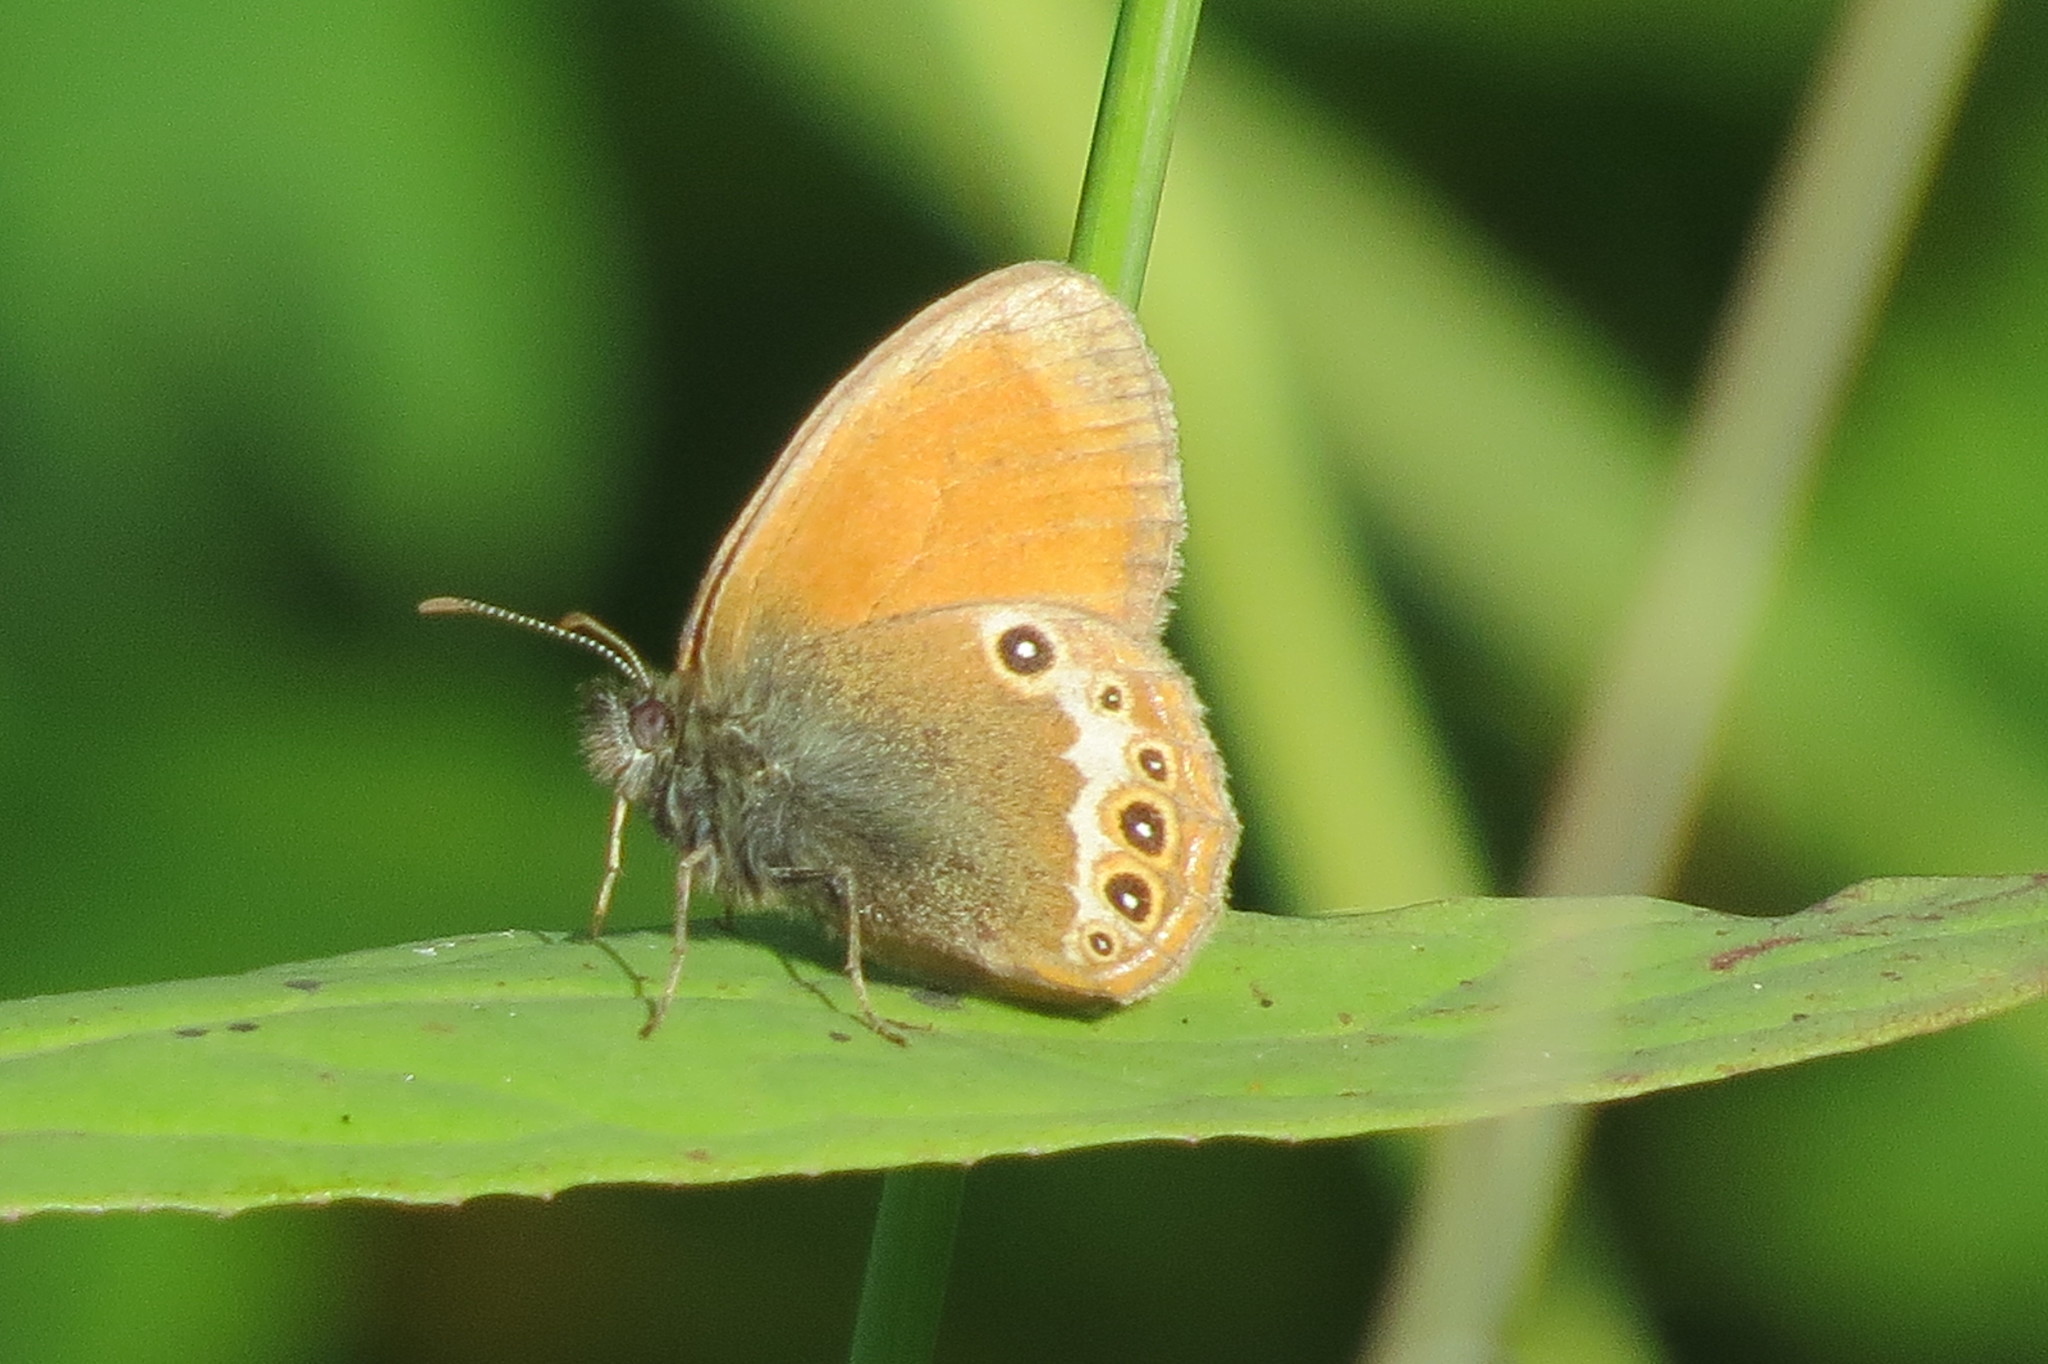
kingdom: Animalia
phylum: Arthropoda
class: Insecta
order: Lepidoptera
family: Nymphalidae
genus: Coenonympha
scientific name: Coenonympha arcania
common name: Pearly heath
